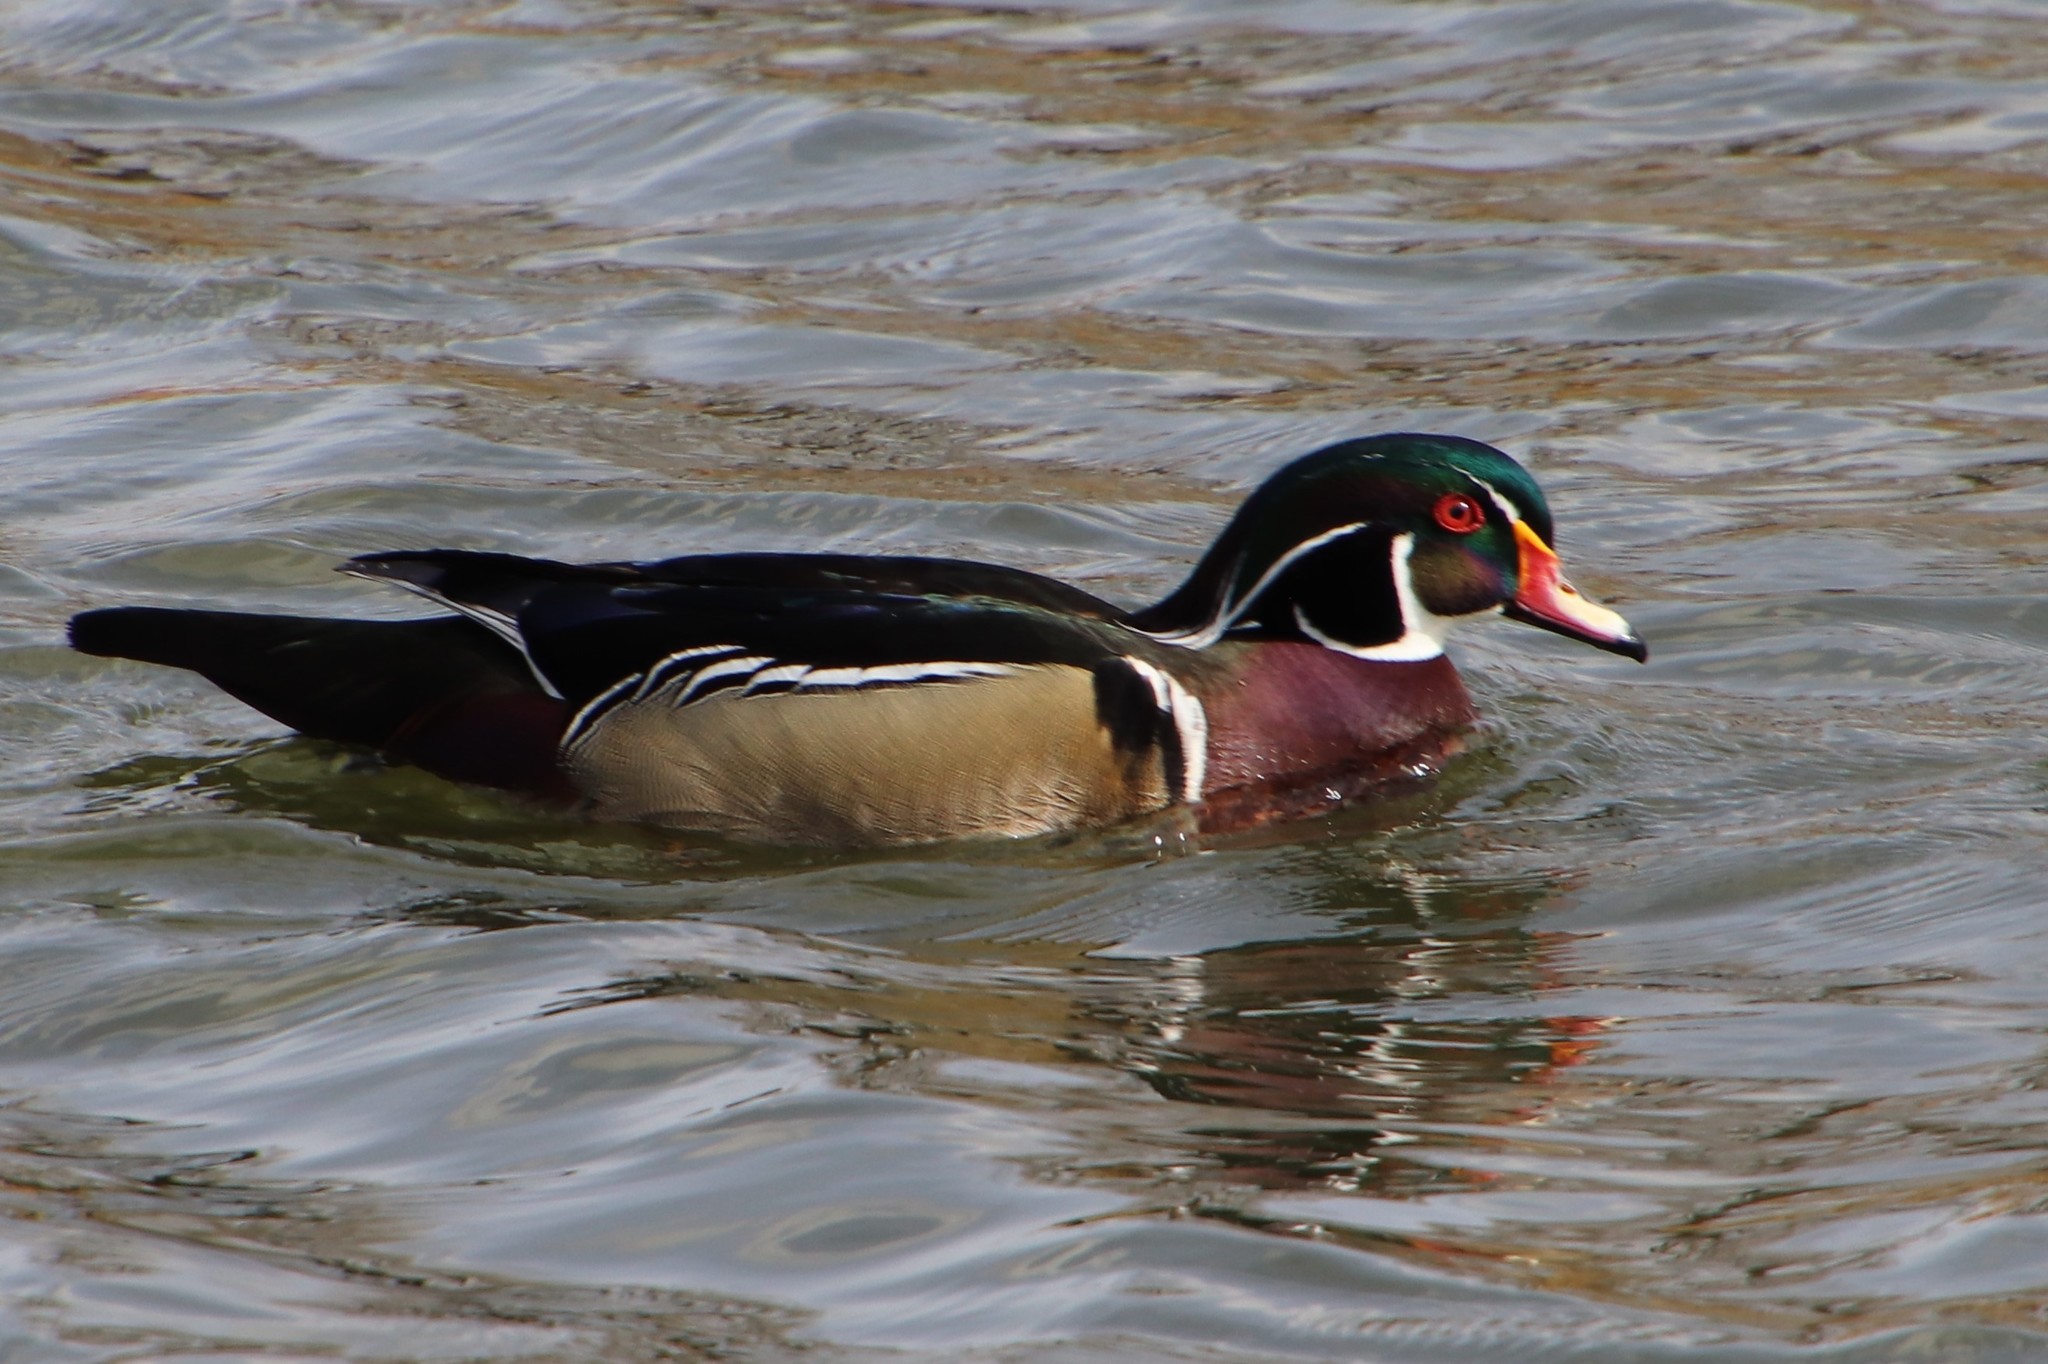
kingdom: Animalia
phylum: Chordata
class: Aves
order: Anseriformes
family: Anatidae
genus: Aix
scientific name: Aix sponsa
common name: Wood duck
